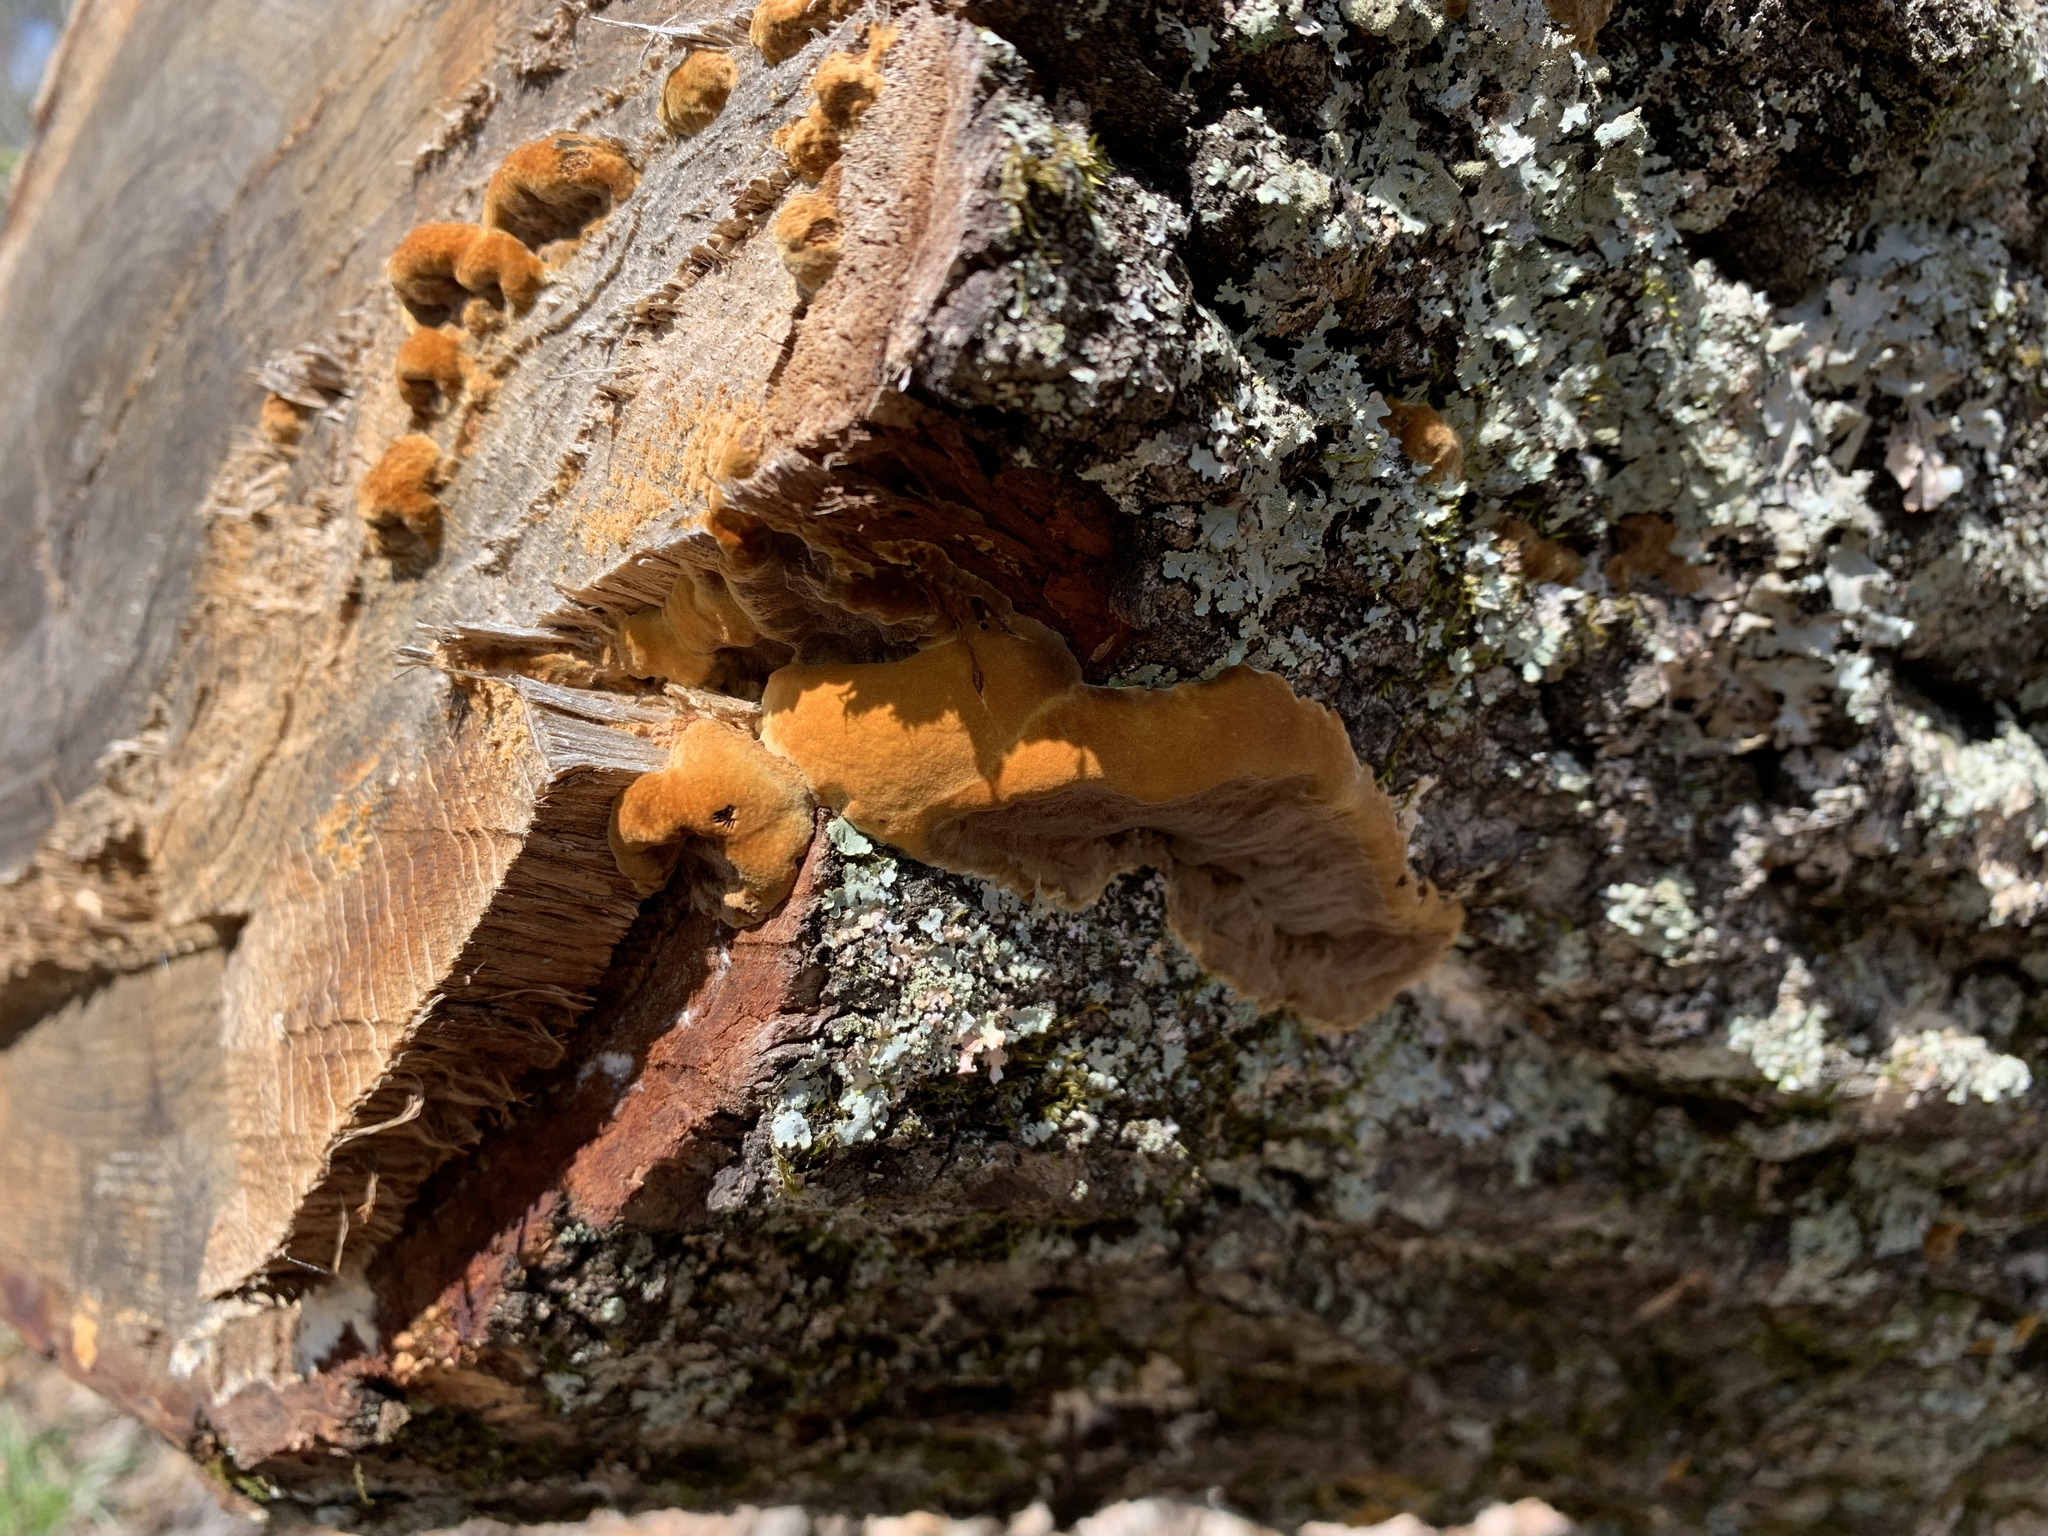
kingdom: Fungi
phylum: Basidiomycota
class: Agaricomycetes
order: Hymenochaetales
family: Hymenochaetaceae
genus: Phellinus
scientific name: Phellinus gilvus
